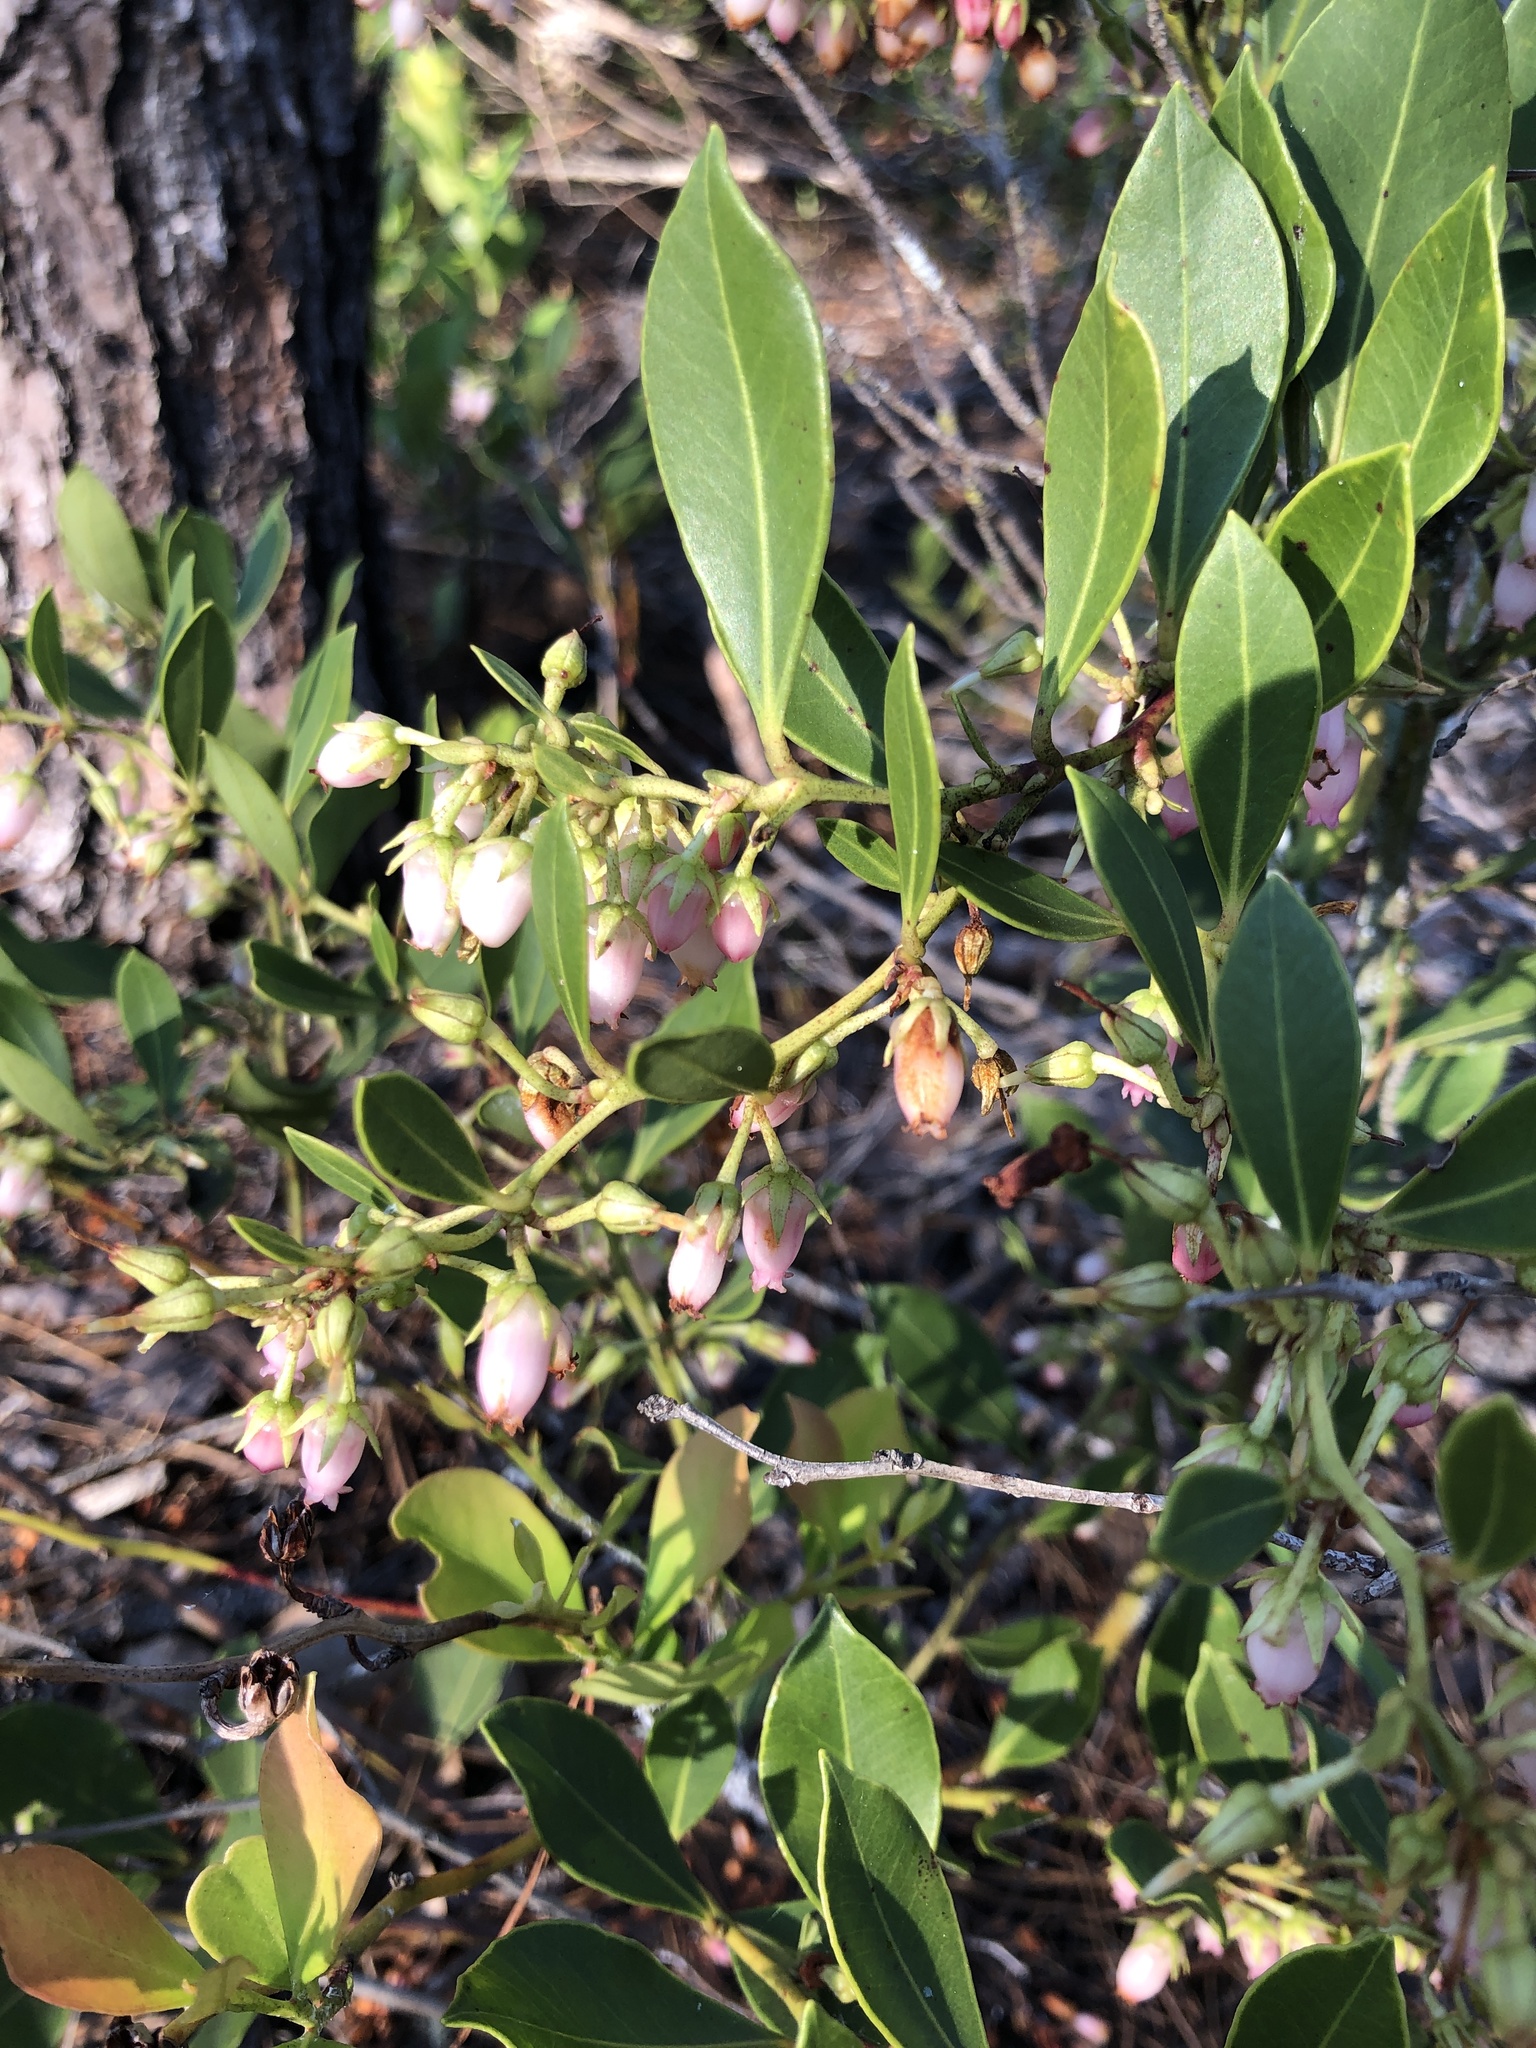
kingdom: Plantae
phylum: Tracheophyta
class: Magnoliopsida
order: Ericales
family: Ericaceae
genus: Lyonia
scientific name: Lyonia lucida
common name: Fetterbush
